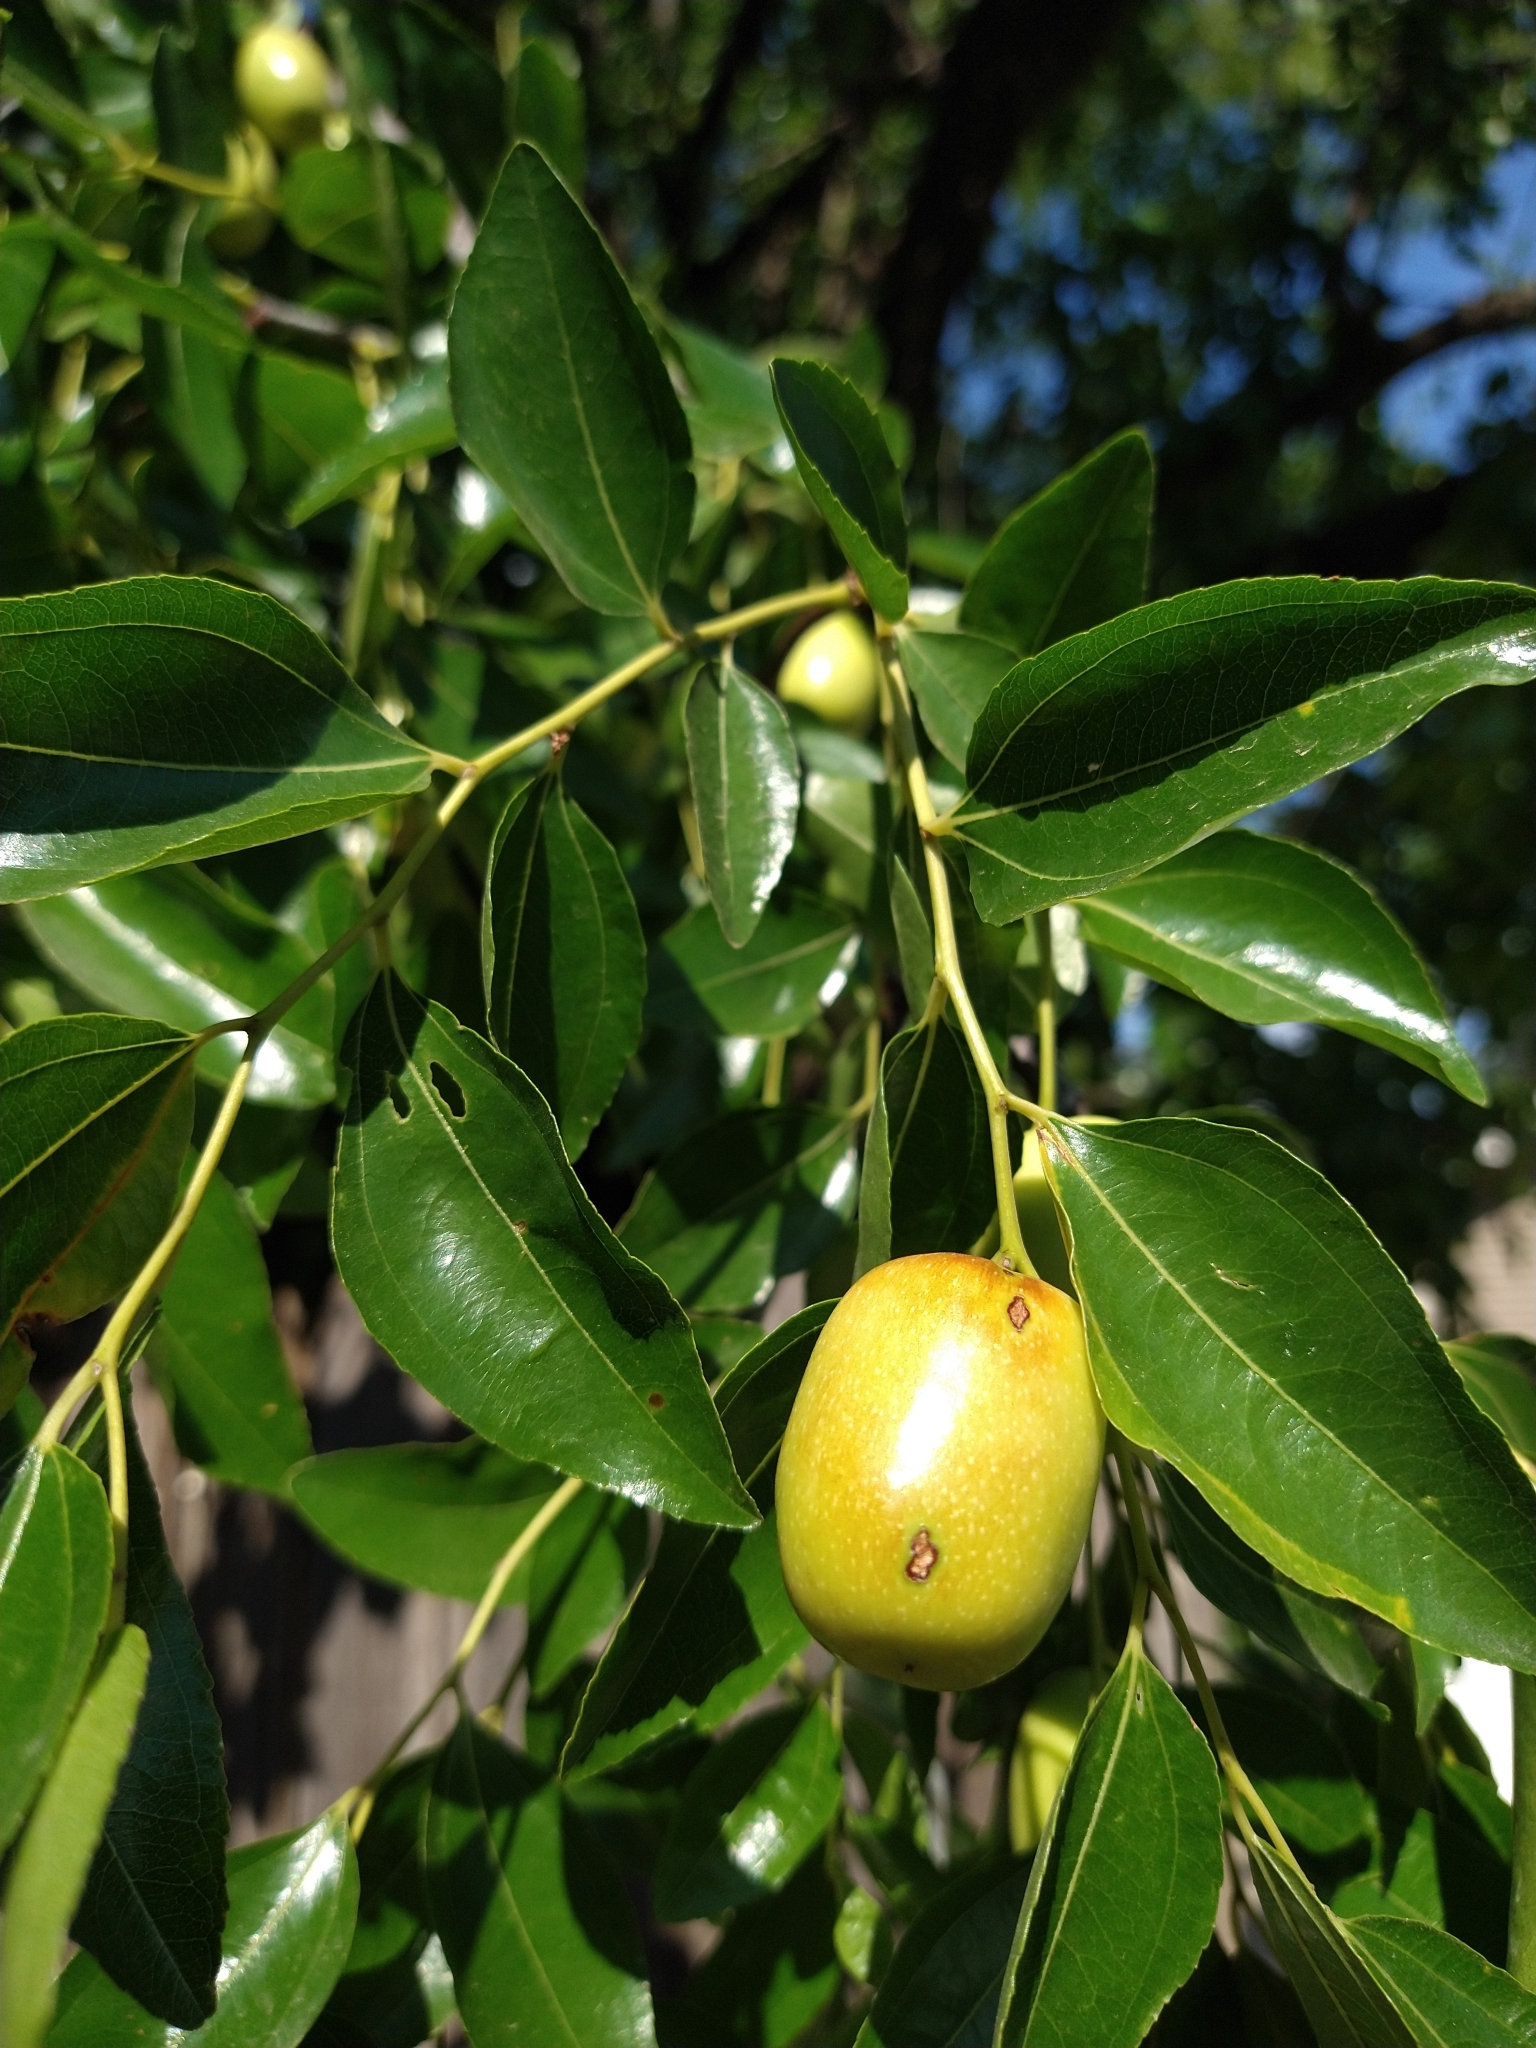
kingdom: Plantae
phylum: Tracheophyta
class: Magnoliopsida
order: Rosales
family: Rhamnaceae
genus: Ziziphus
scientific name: Ziziphus jujuba
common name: Jujube red date
